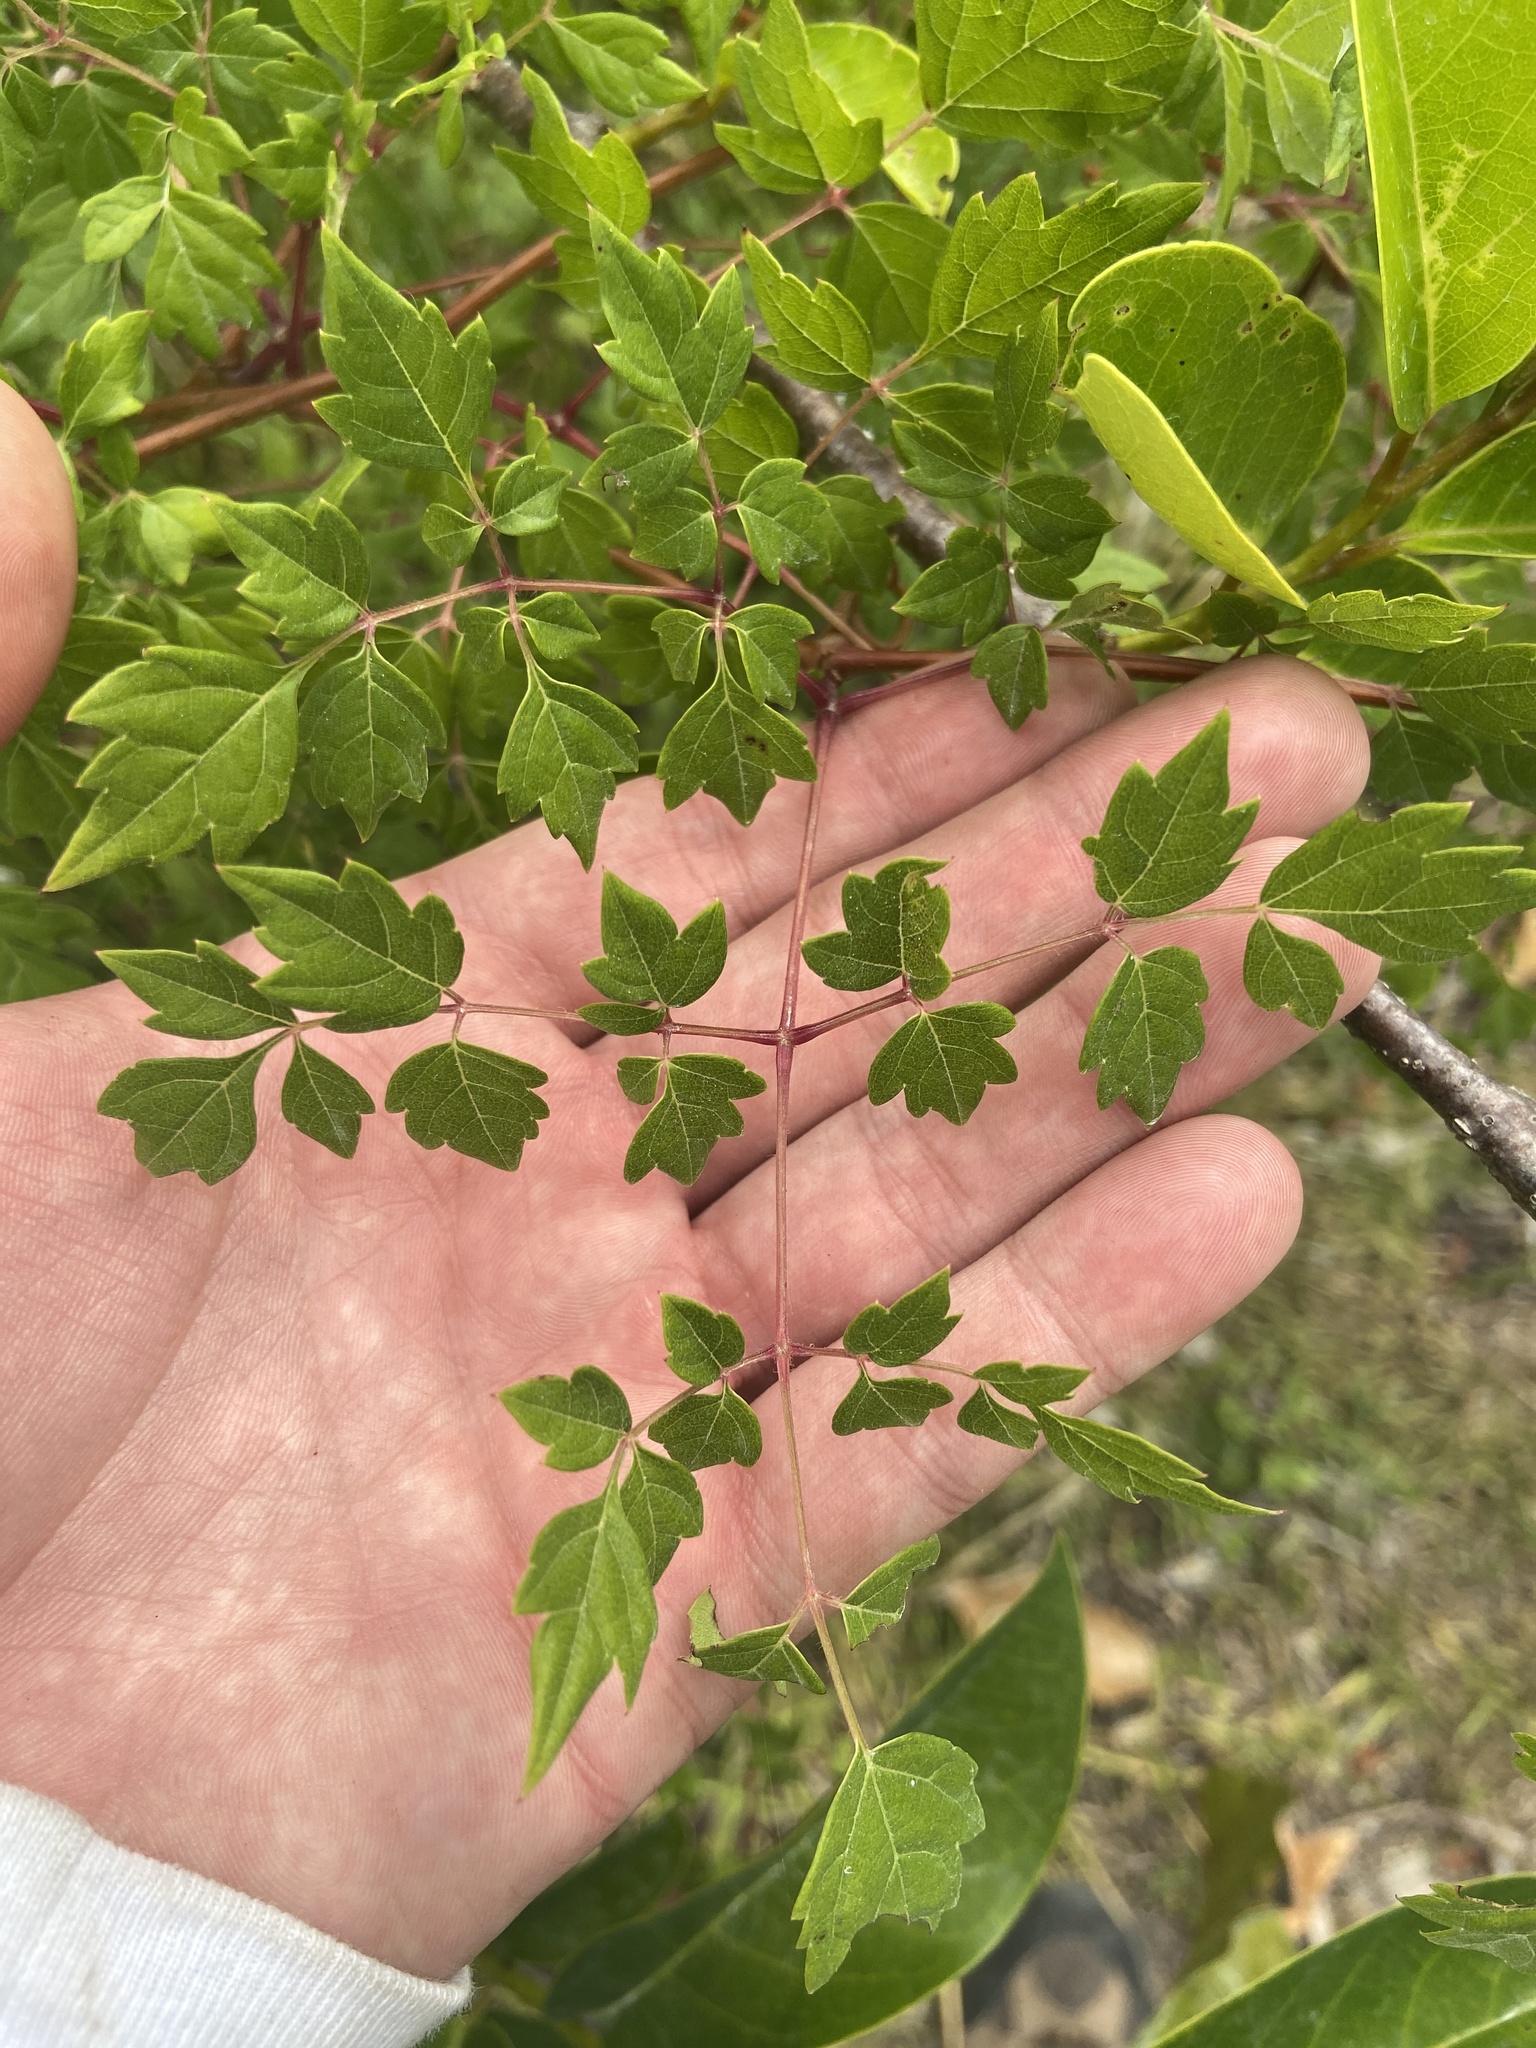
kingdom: Plantae
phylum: Tracheophyta
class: Magnoliopsida
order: Vitales
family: Vitaceae
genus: Nekemias
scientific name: Nekemias arborea
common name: Peppervine
